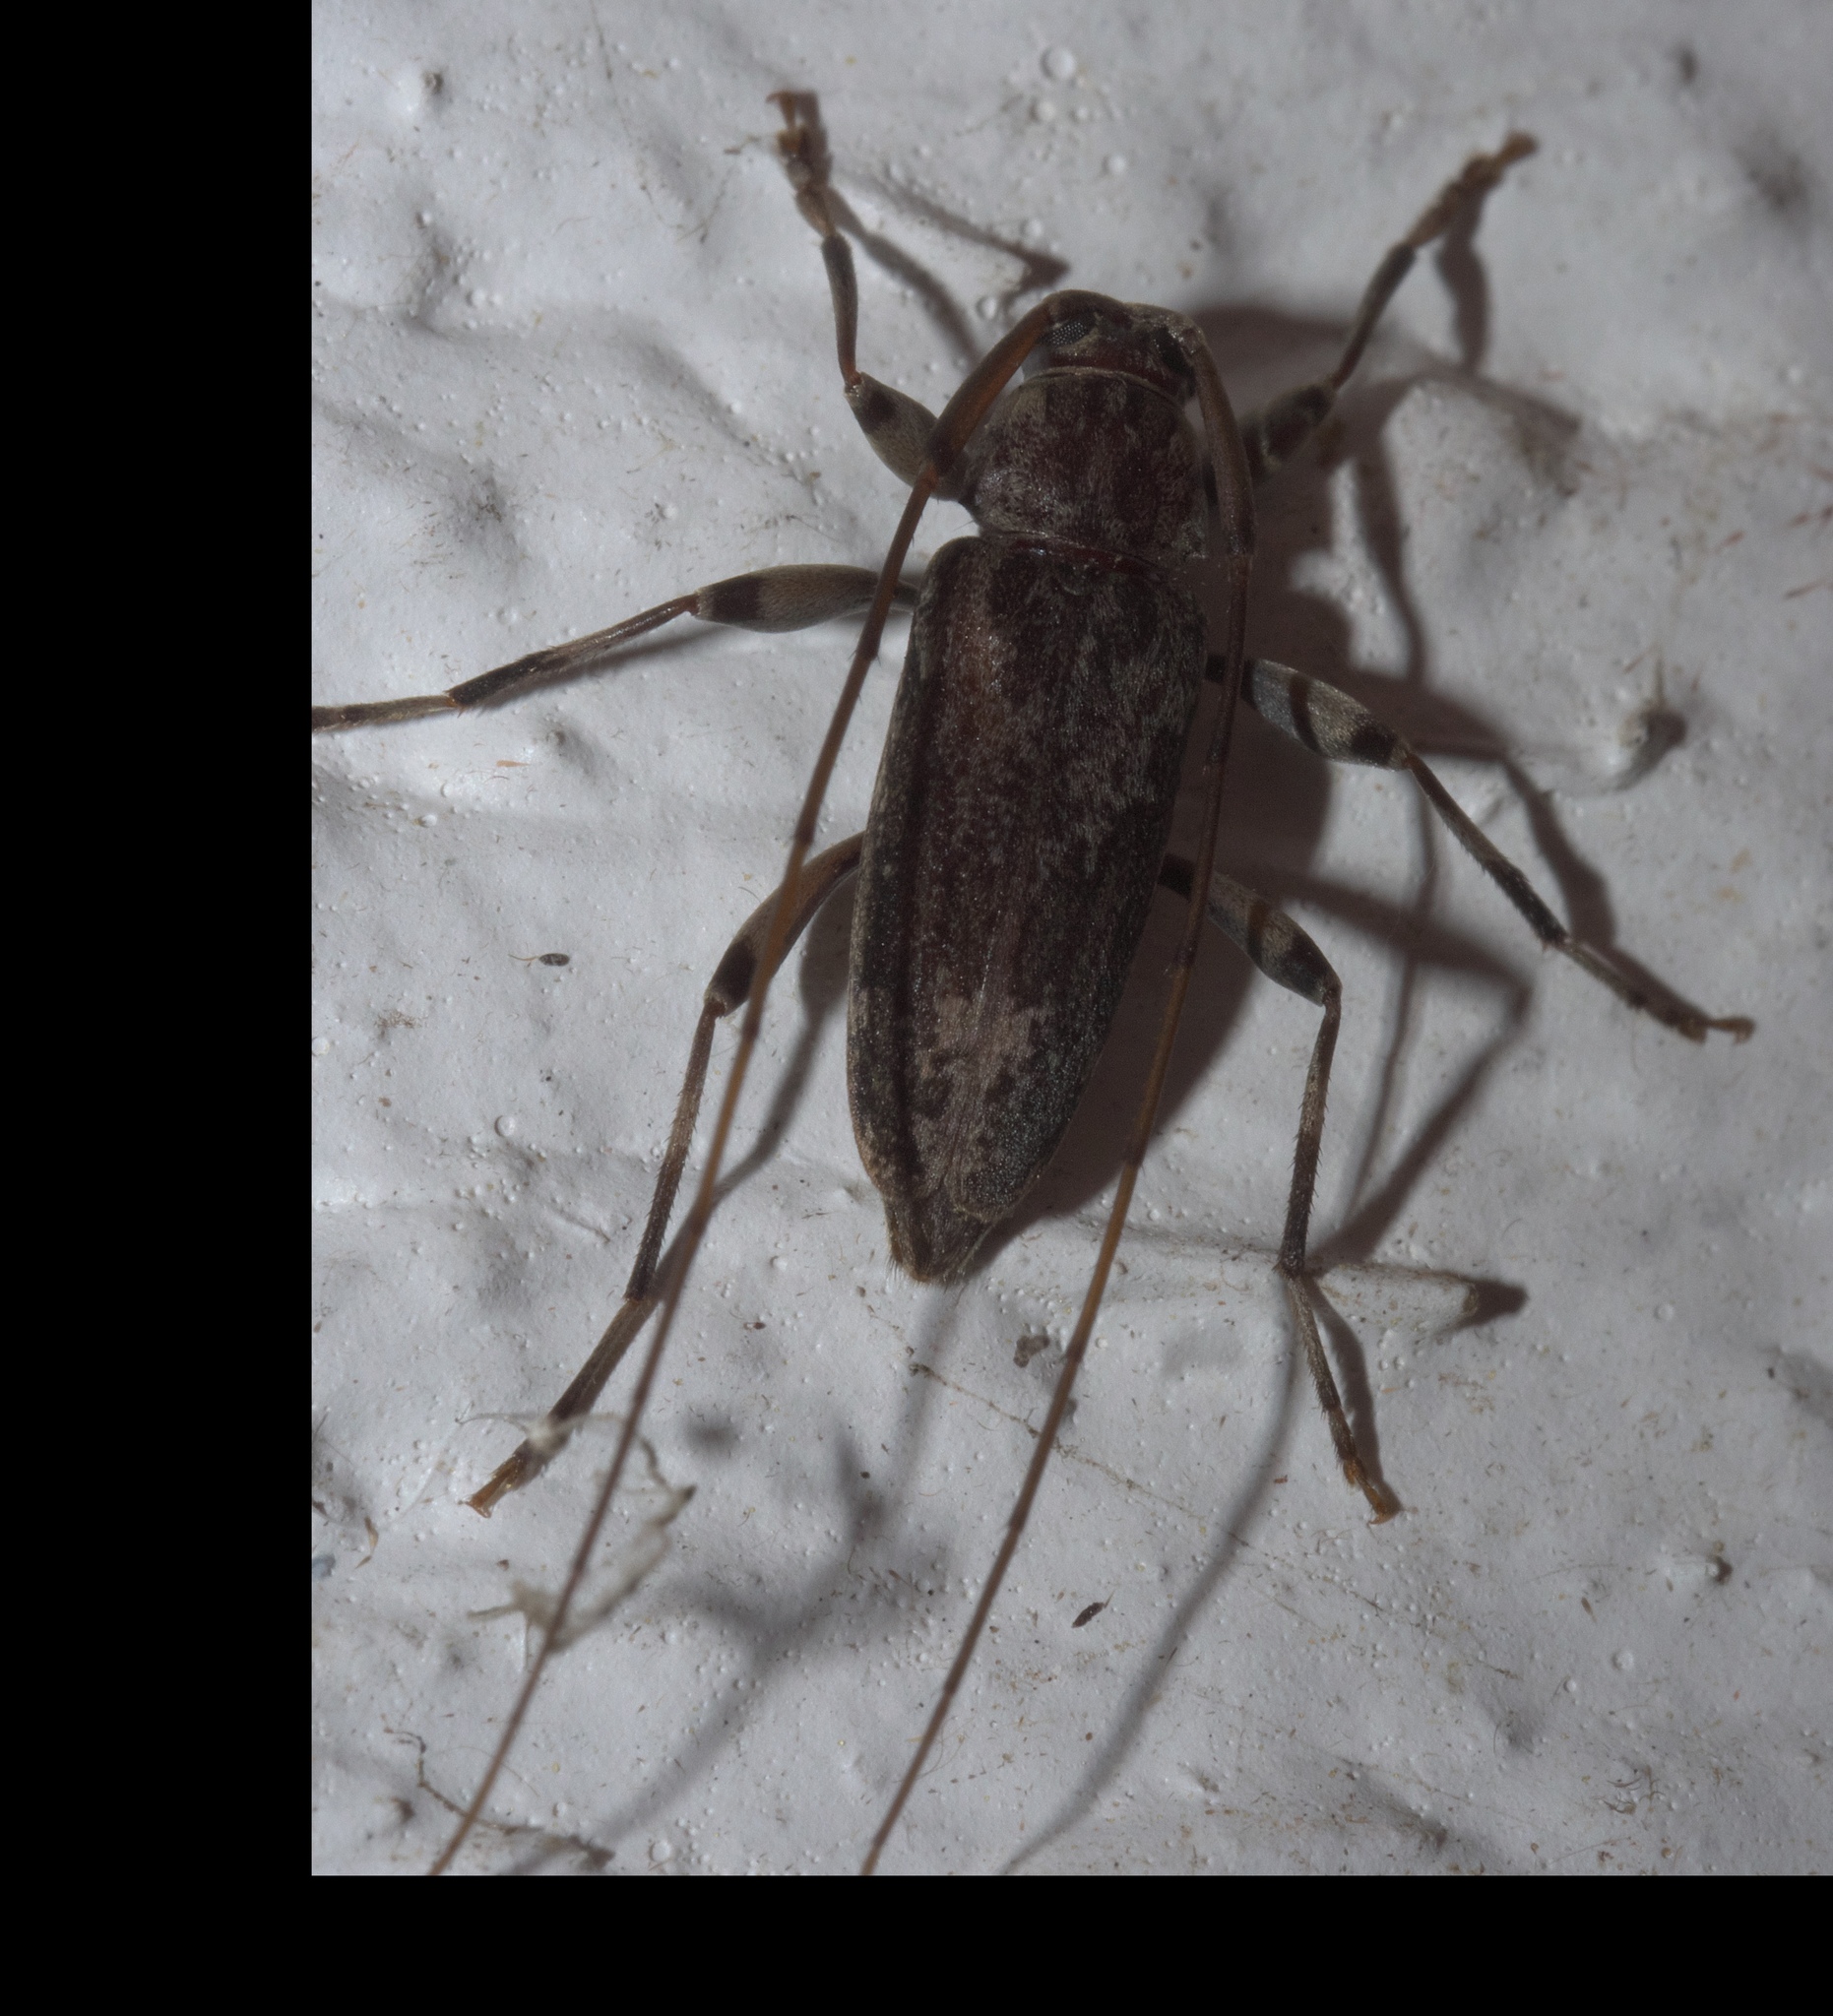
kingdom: Animalia
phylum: Arthropoda
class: Insecta
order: Coleoptera
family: Cerambycidae
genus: Lepturges
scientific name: Lepturges confluens
